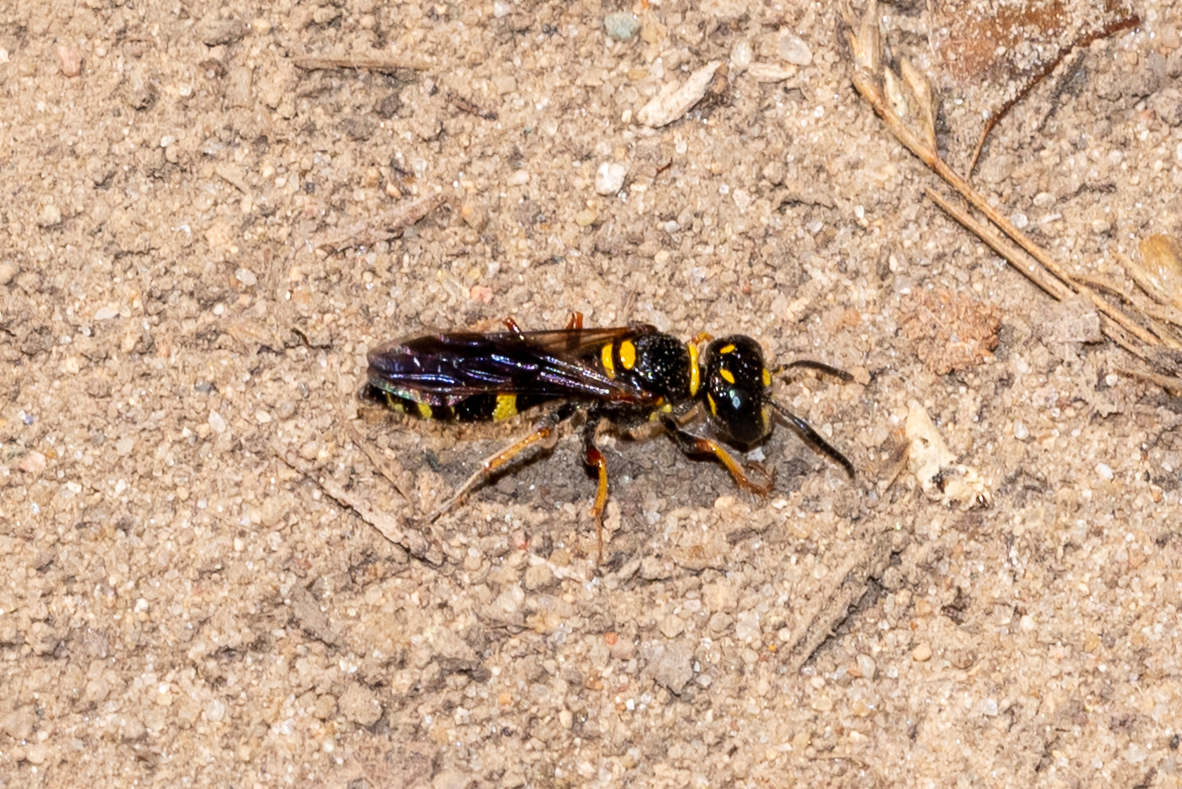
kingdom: Animalia
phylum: Arthropoda
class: Insecta
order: Hymenoptera
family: Crabronidae
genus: Philanthus
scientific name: Philanthus gibbosus
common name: Humped beewolf
